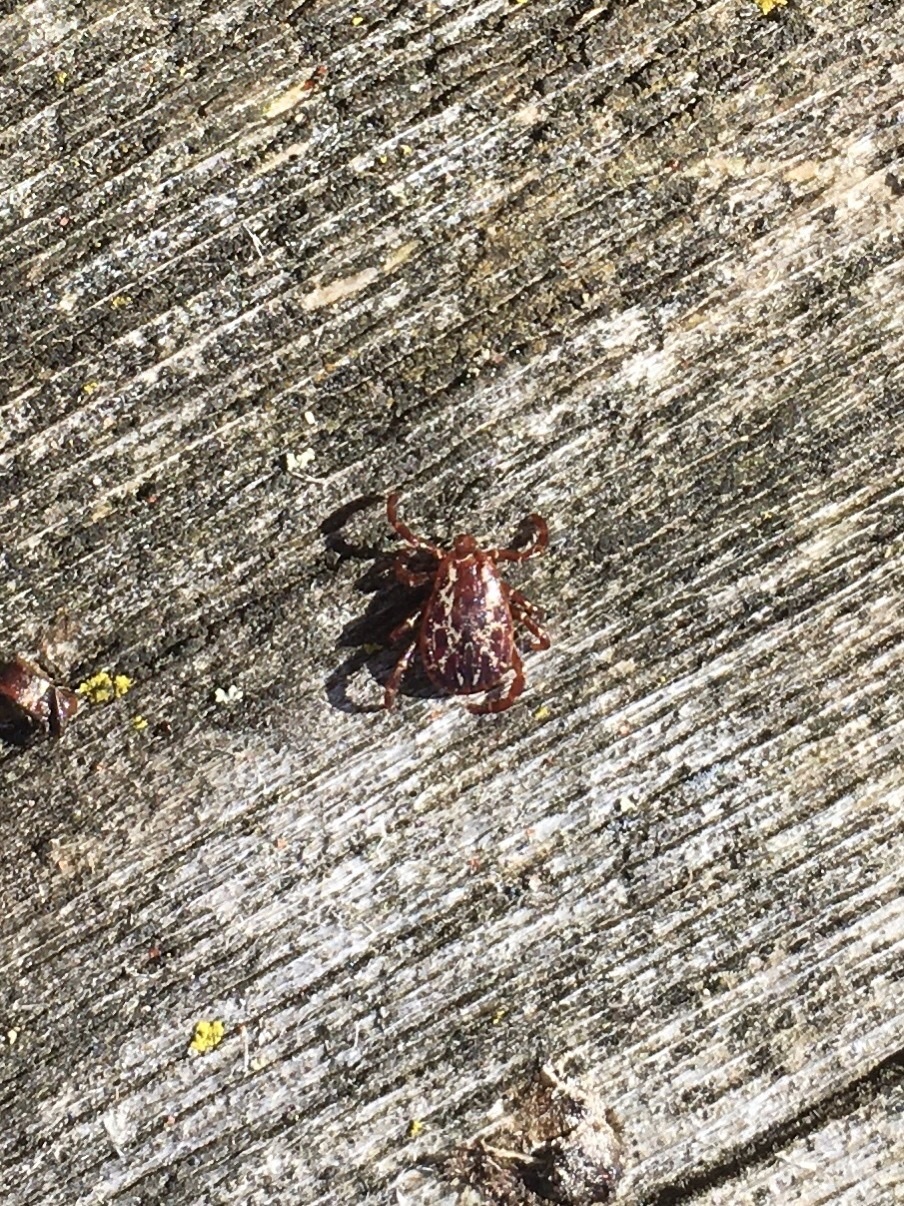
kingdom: Animalia
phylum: Arthropoda
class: Arachnida
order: Ixodida
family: Ixodidae
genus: Dermacentor
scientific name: Dermacentor variabilis
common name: American dog tick
